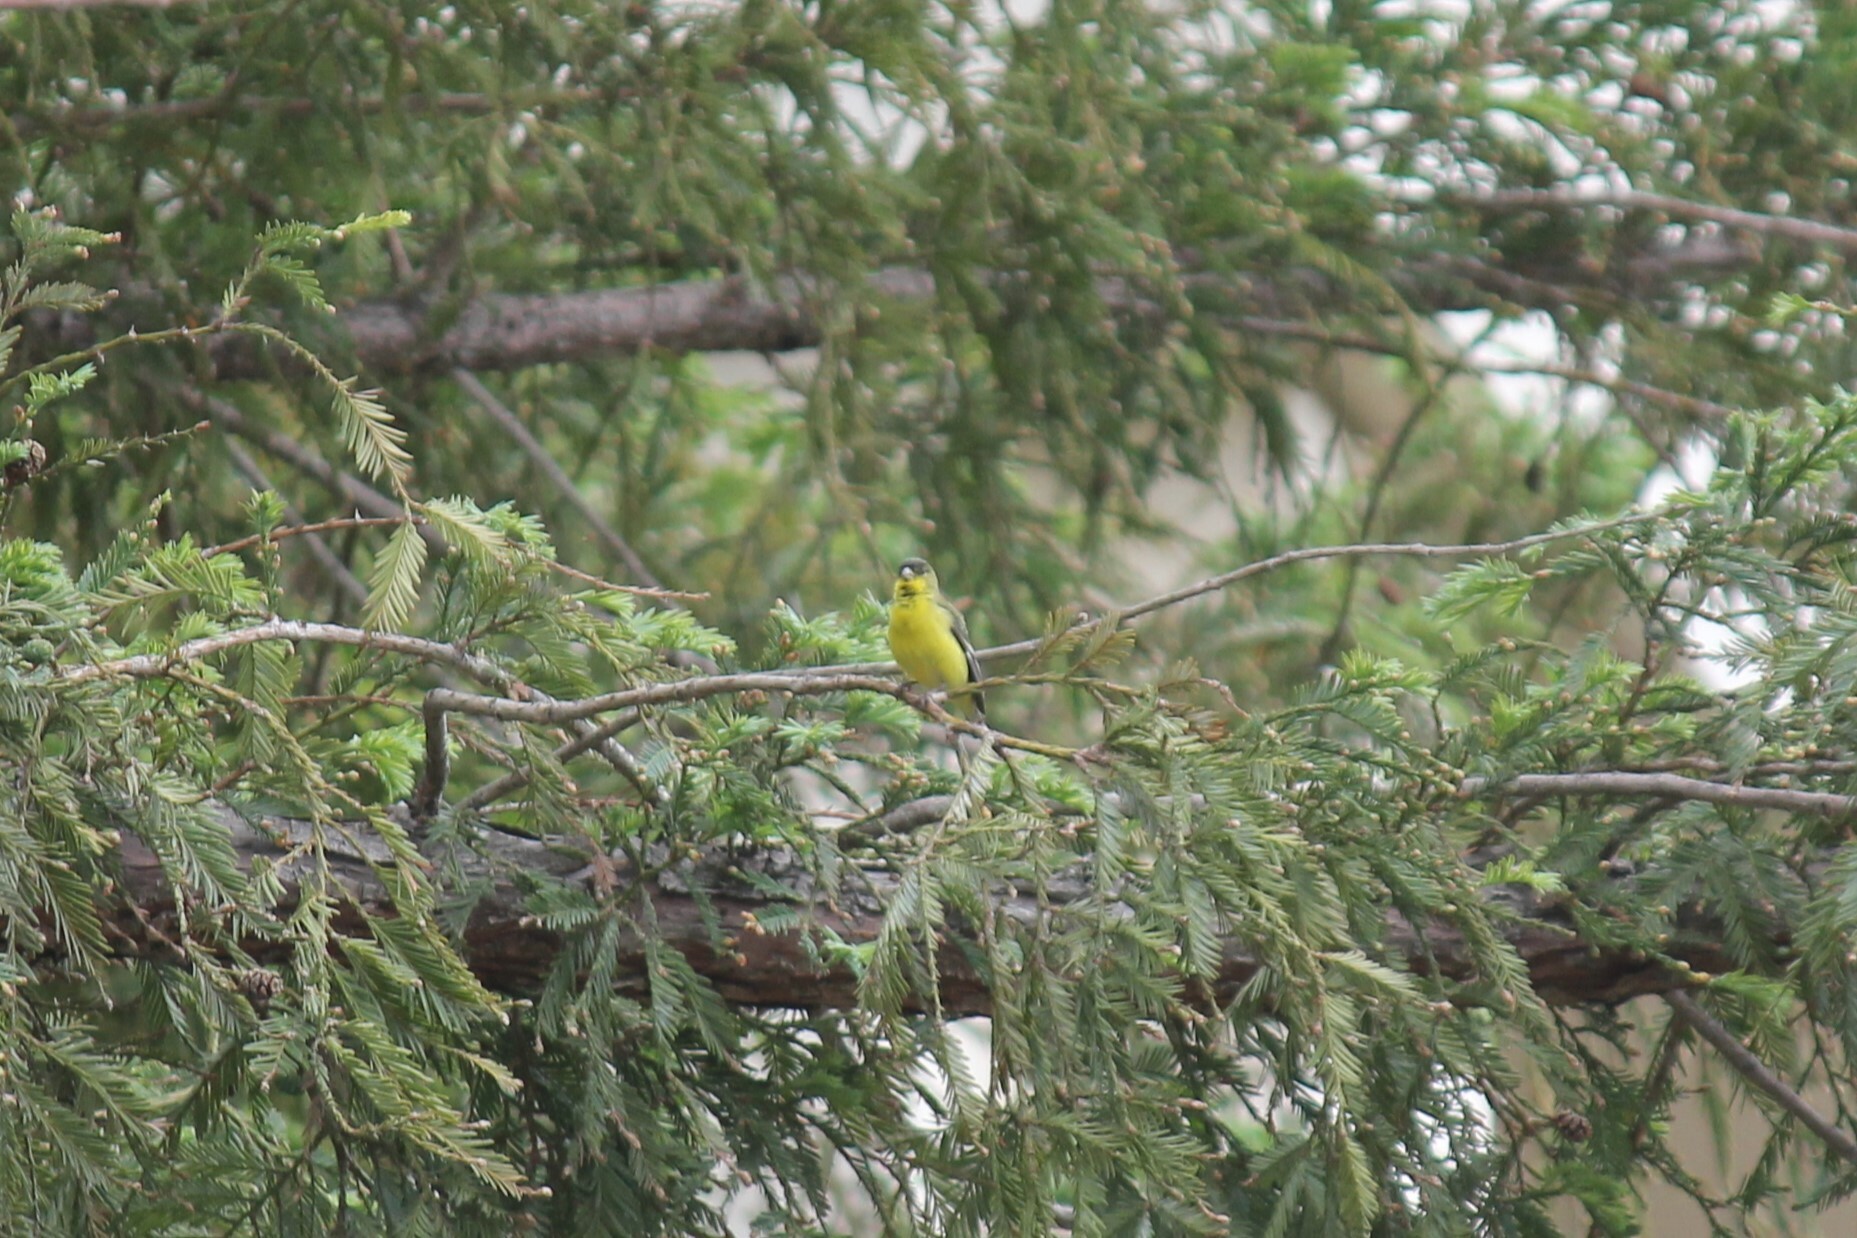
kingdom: Animalia
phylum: Chordata
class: Aves
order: Passeriformes
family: Fringillidae
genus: Spinus
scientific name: Spinus psaltria
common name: Lesser goldfinch
